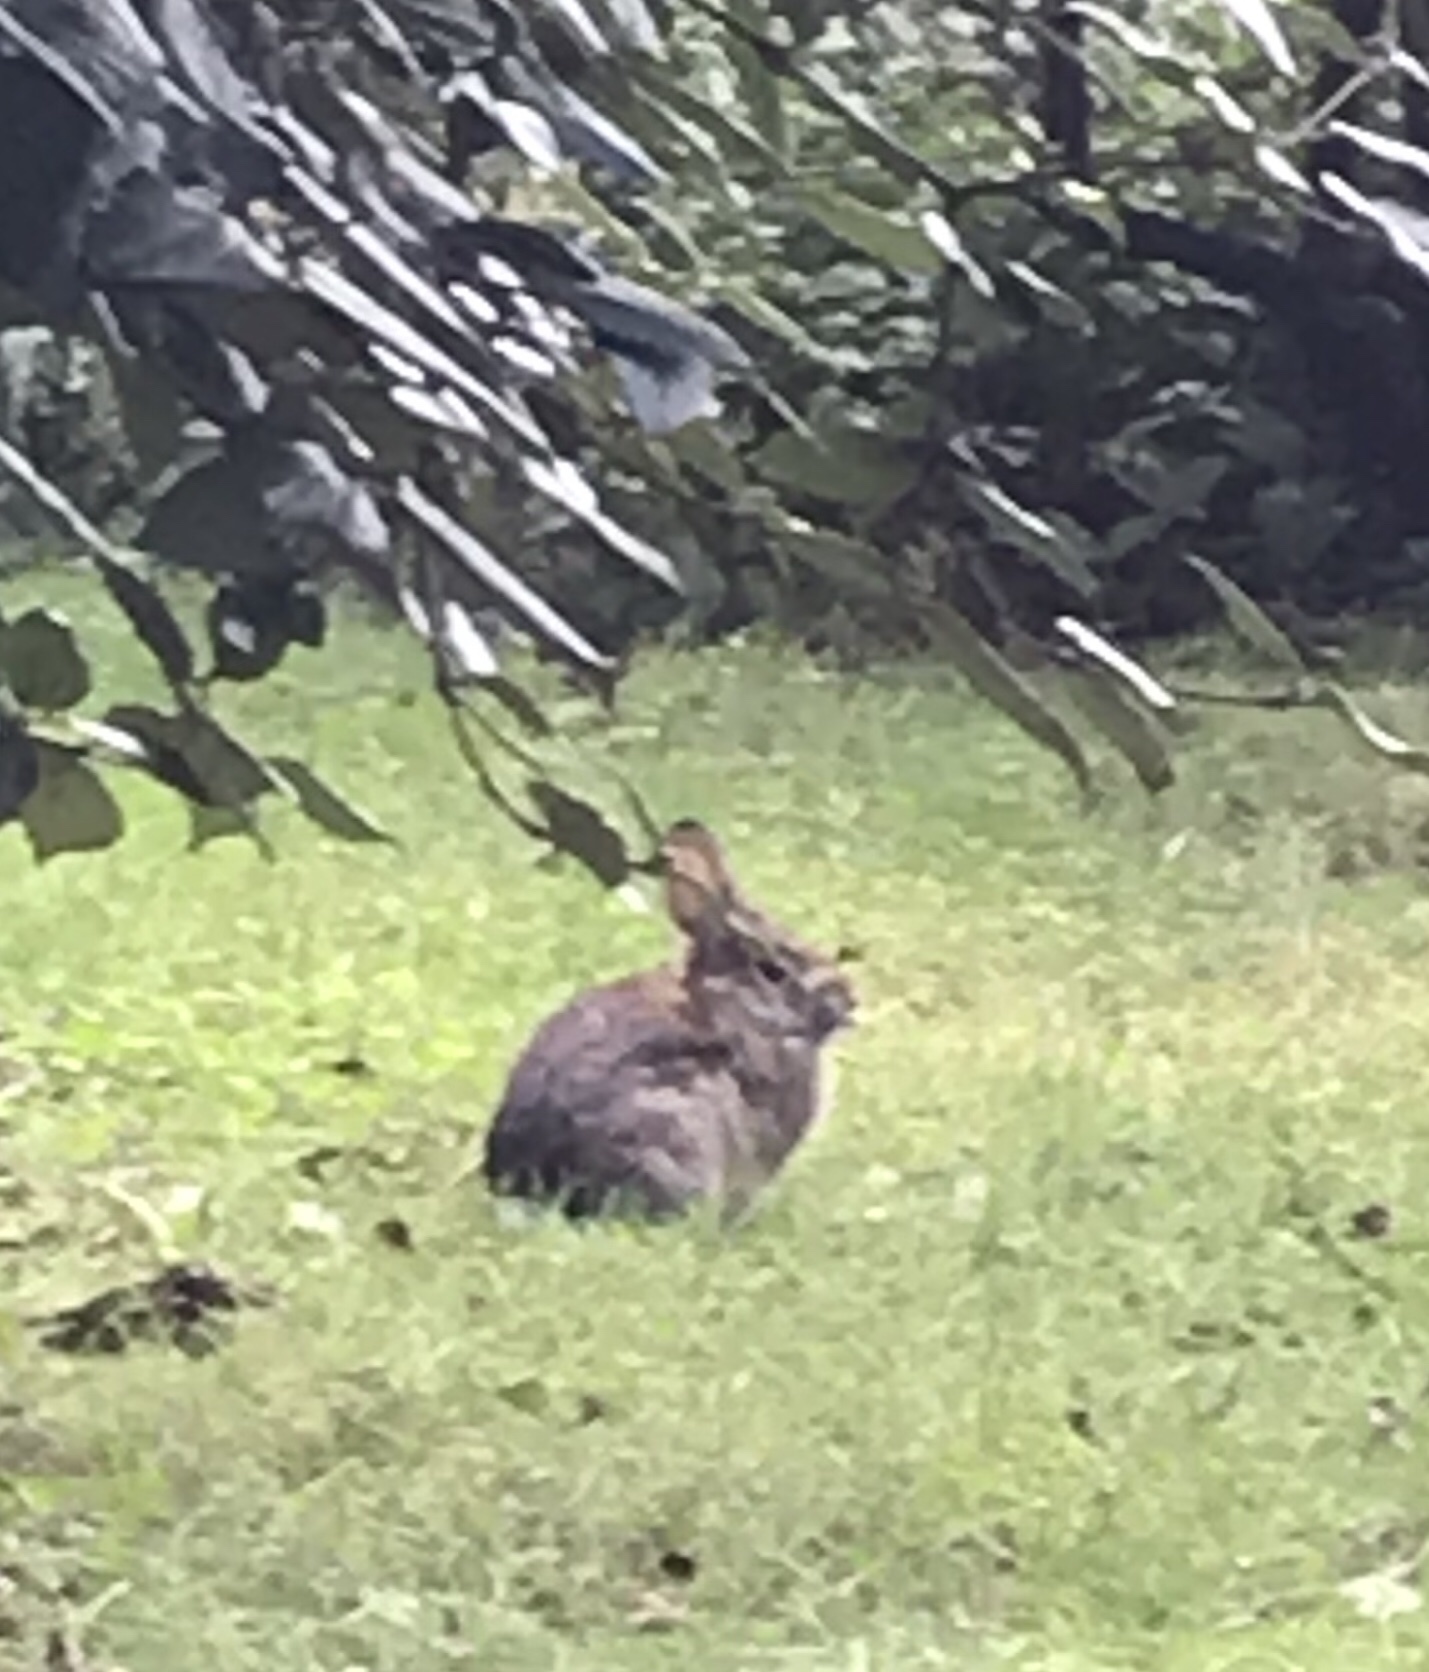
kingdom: Animalia
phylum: Chordata
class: Mammalia
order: Lagomorpha
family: Leporidae
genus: Sylvilagus
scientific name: Sylvilagus floridanus
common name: Eastern cottontail
